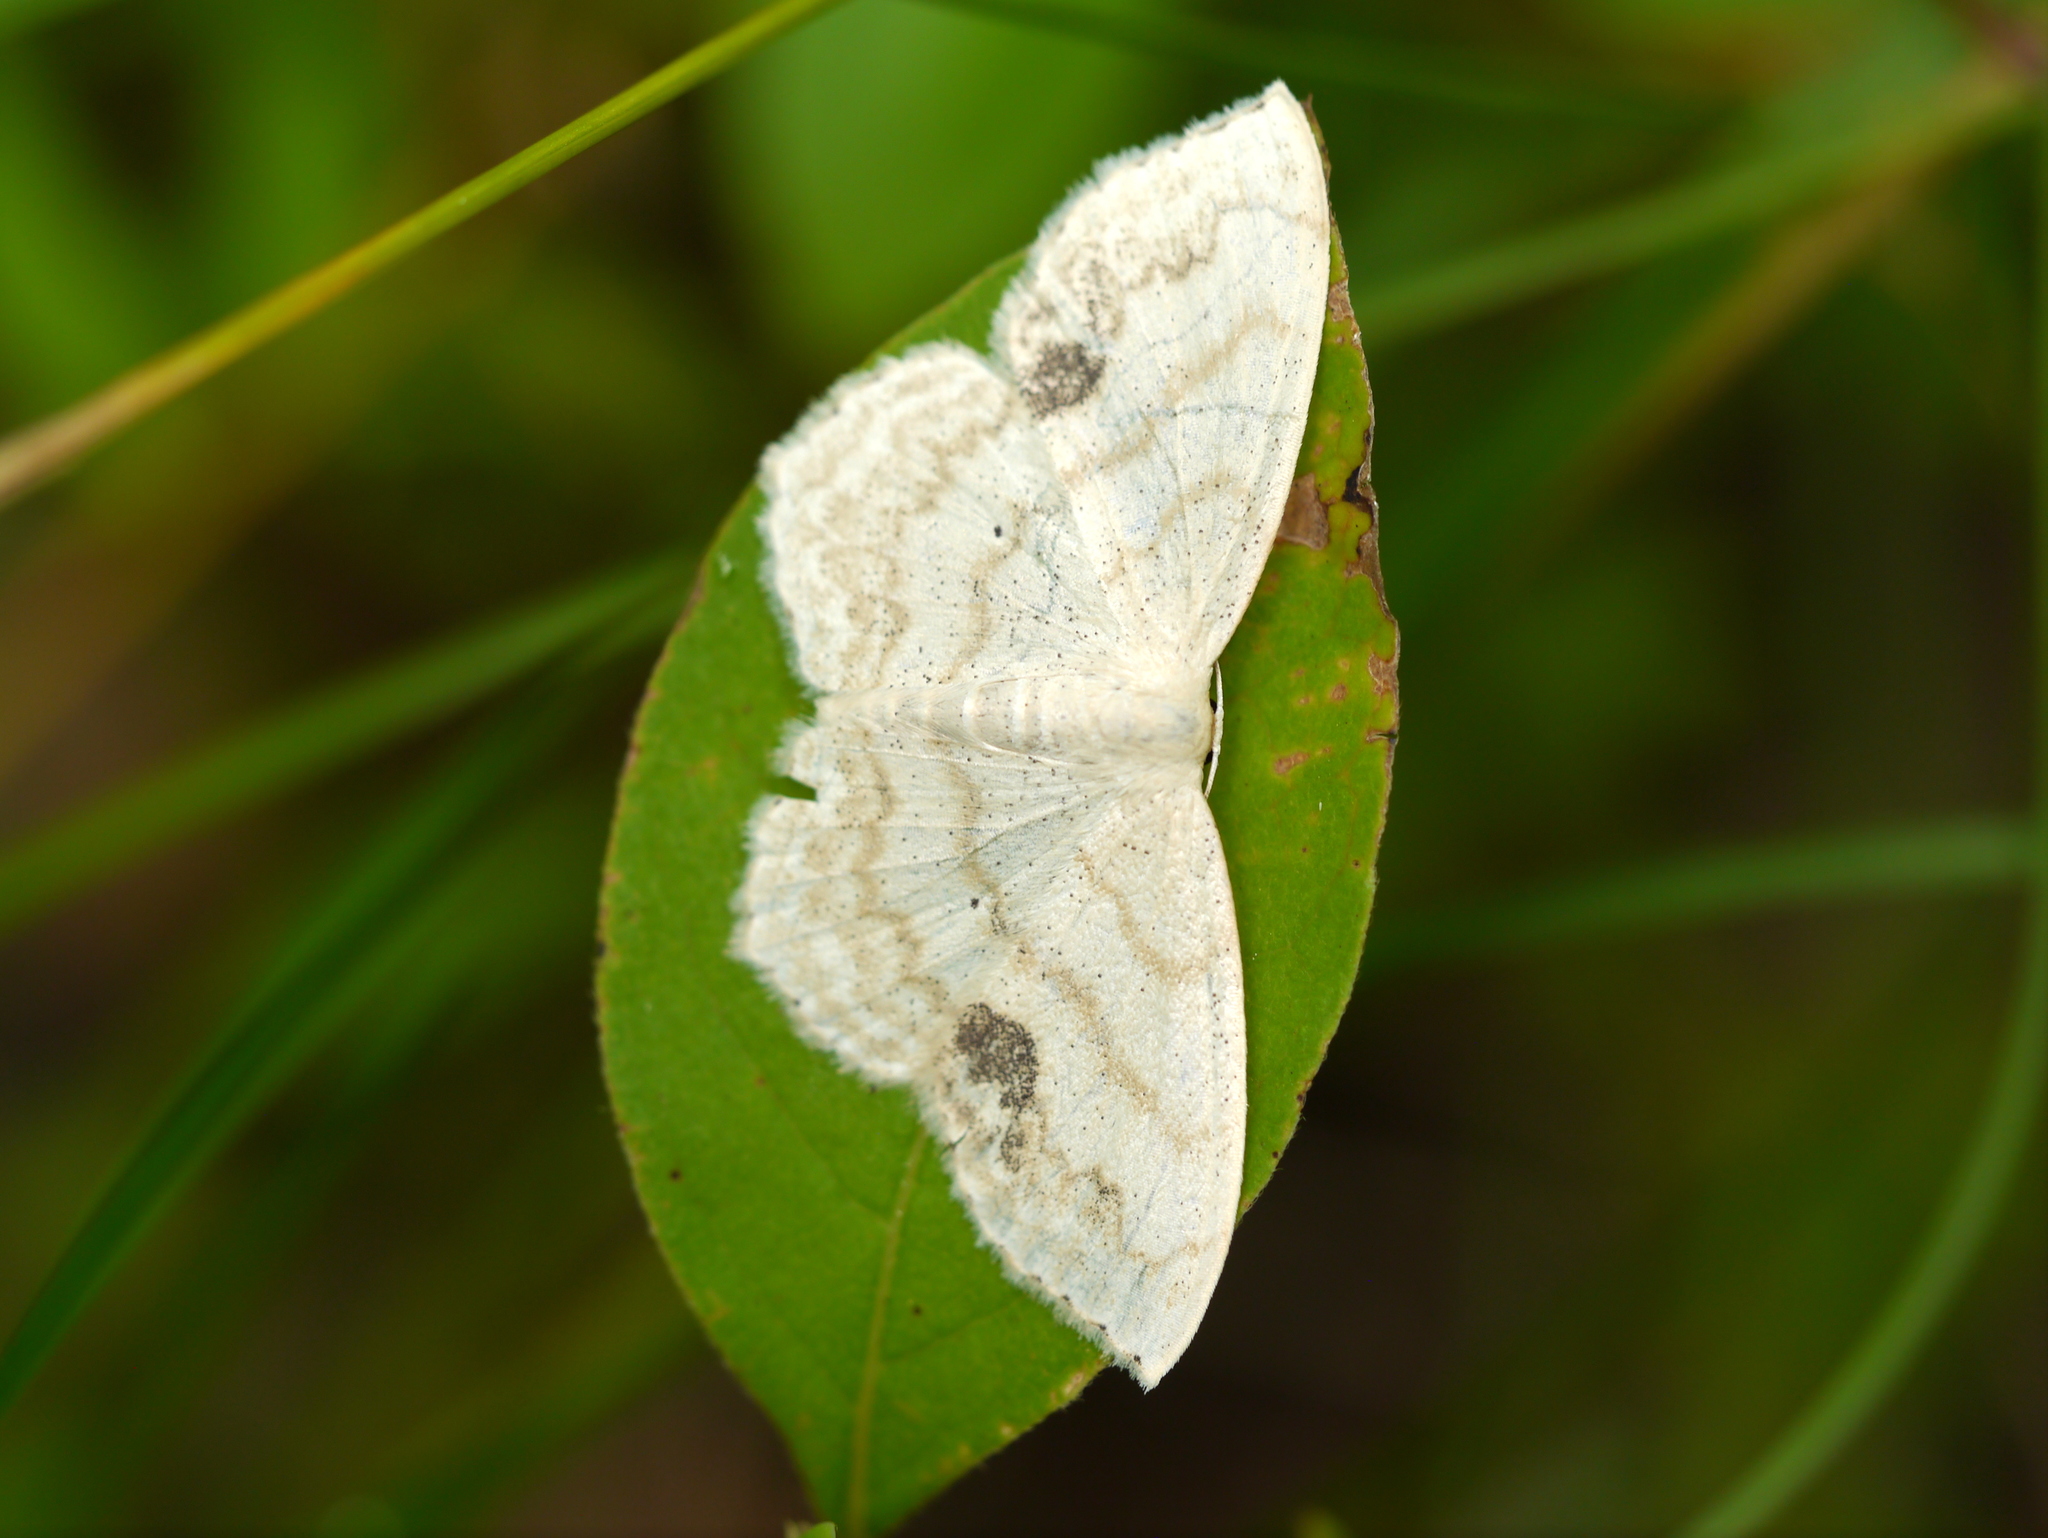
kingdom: Animalia
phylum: Arthropoda
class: Insecta
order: Lepidoptera
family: Geometridae
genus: Scopula
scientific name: Scopula limboundata
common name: Large lace border
